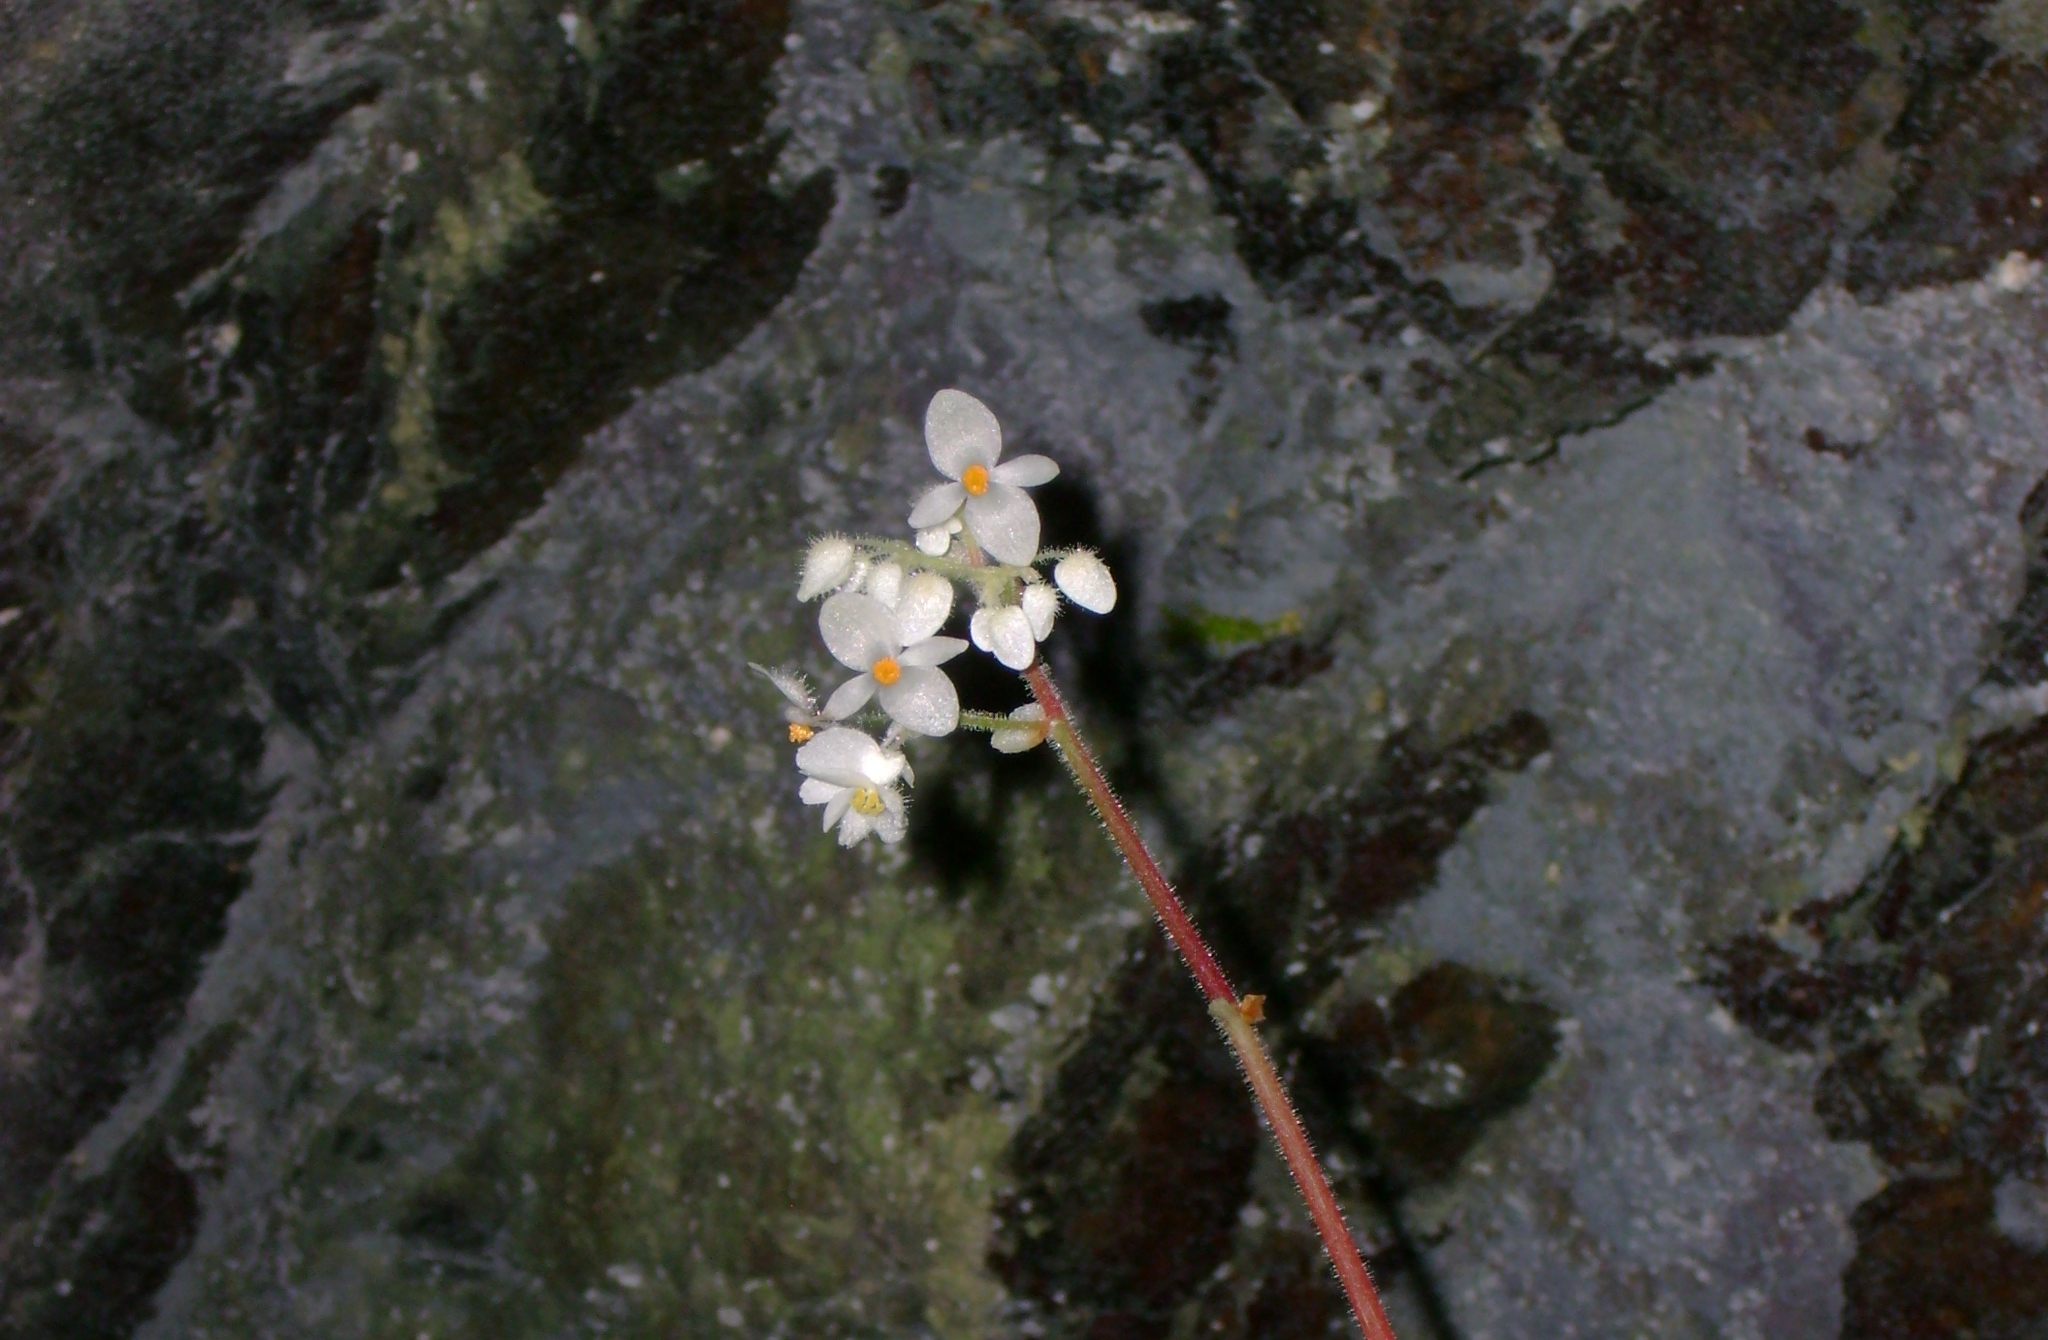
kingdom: Plantae
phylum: Tracheophyta
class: Magnoliopsida
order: Cucurbitales
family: Begoniaceae
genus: Begonia
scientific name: Begonia glandulifera
